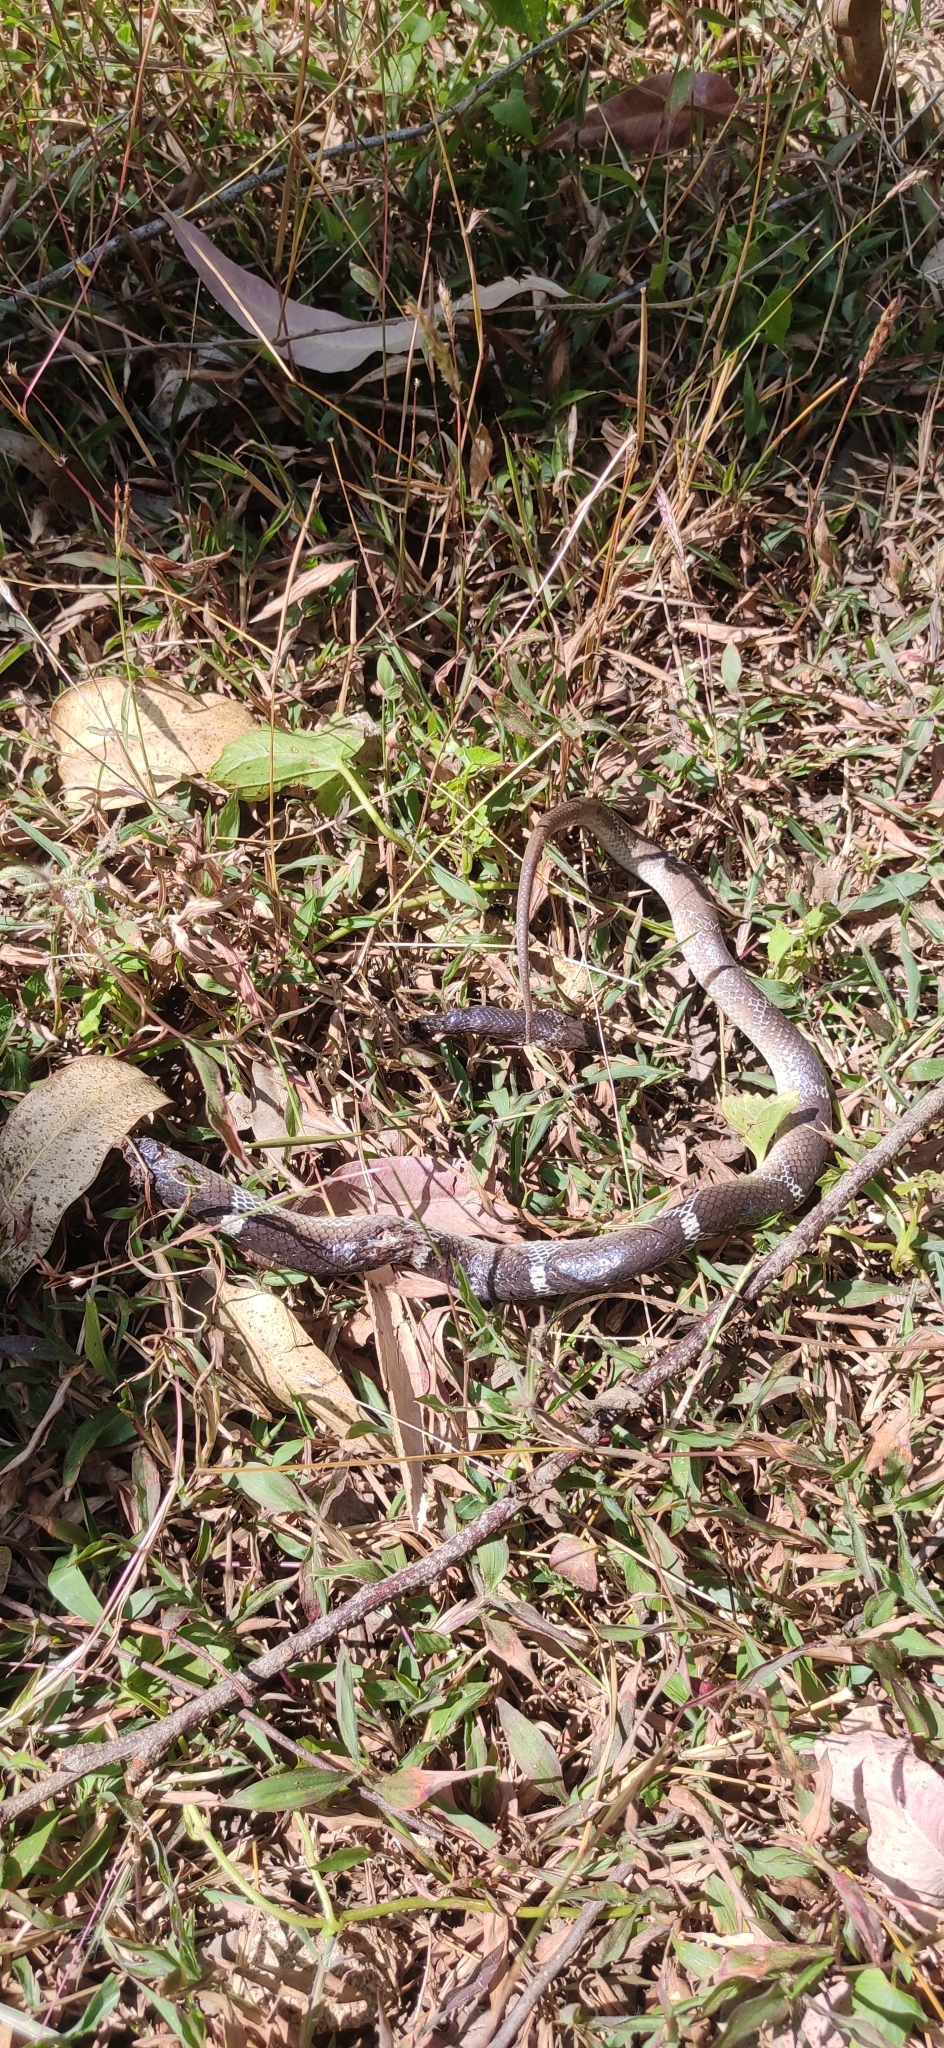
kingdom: Animalia
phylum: Chordata
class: Squamata
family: Colubridae
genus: Lycodon
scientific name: Lycodon aulicus
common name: Common wolf snake
